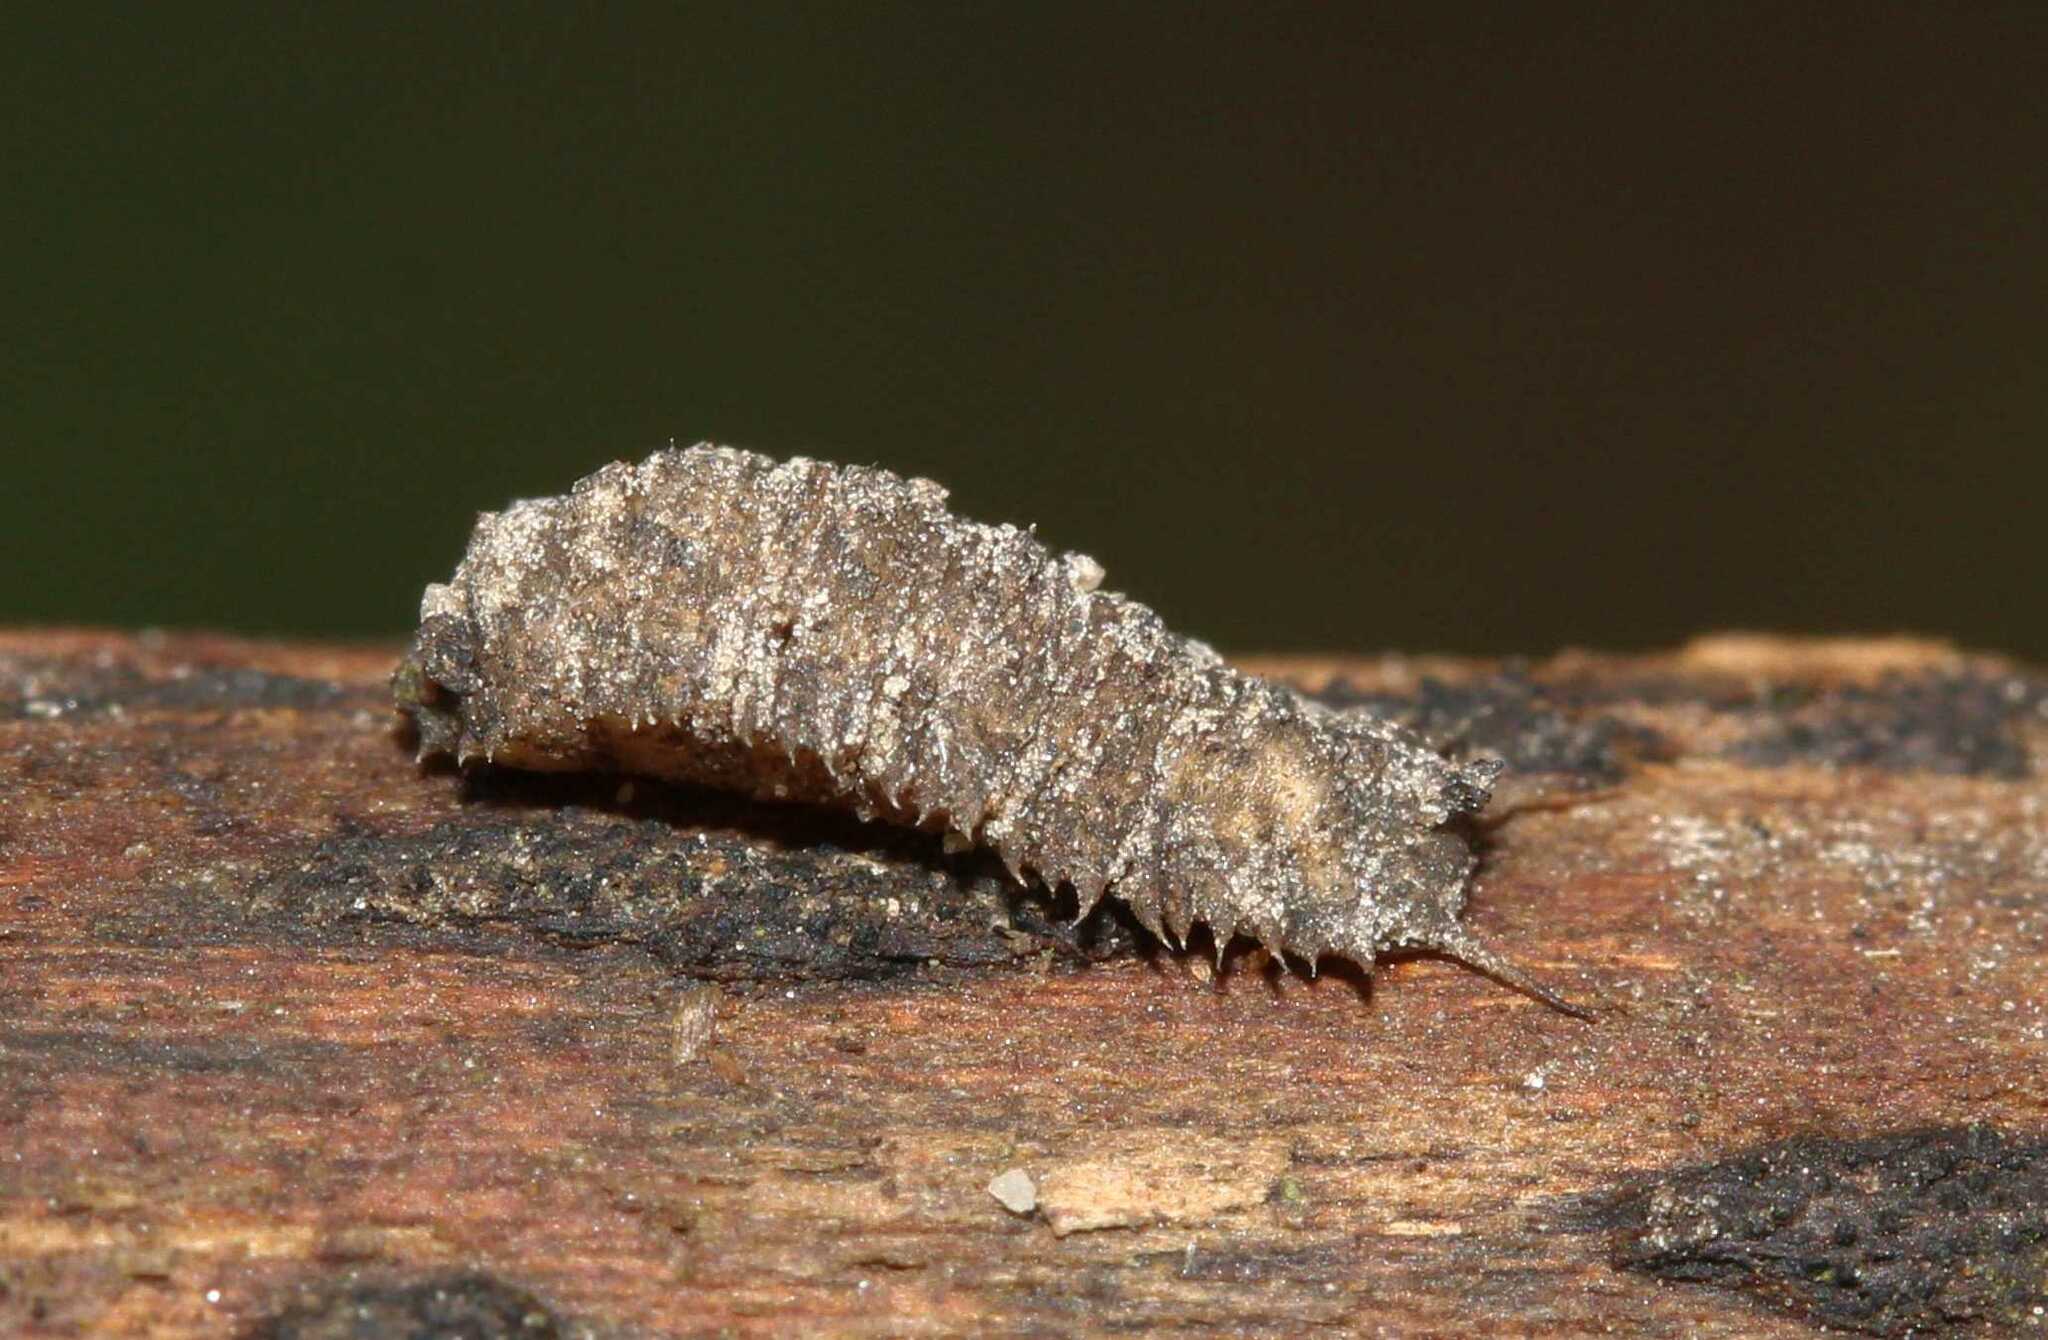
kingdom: Animalia
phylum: Arthropoda
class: Insecta
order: Diptera
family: Syrphidae
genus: Dasysyrphus
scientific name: Dasysyrphus
